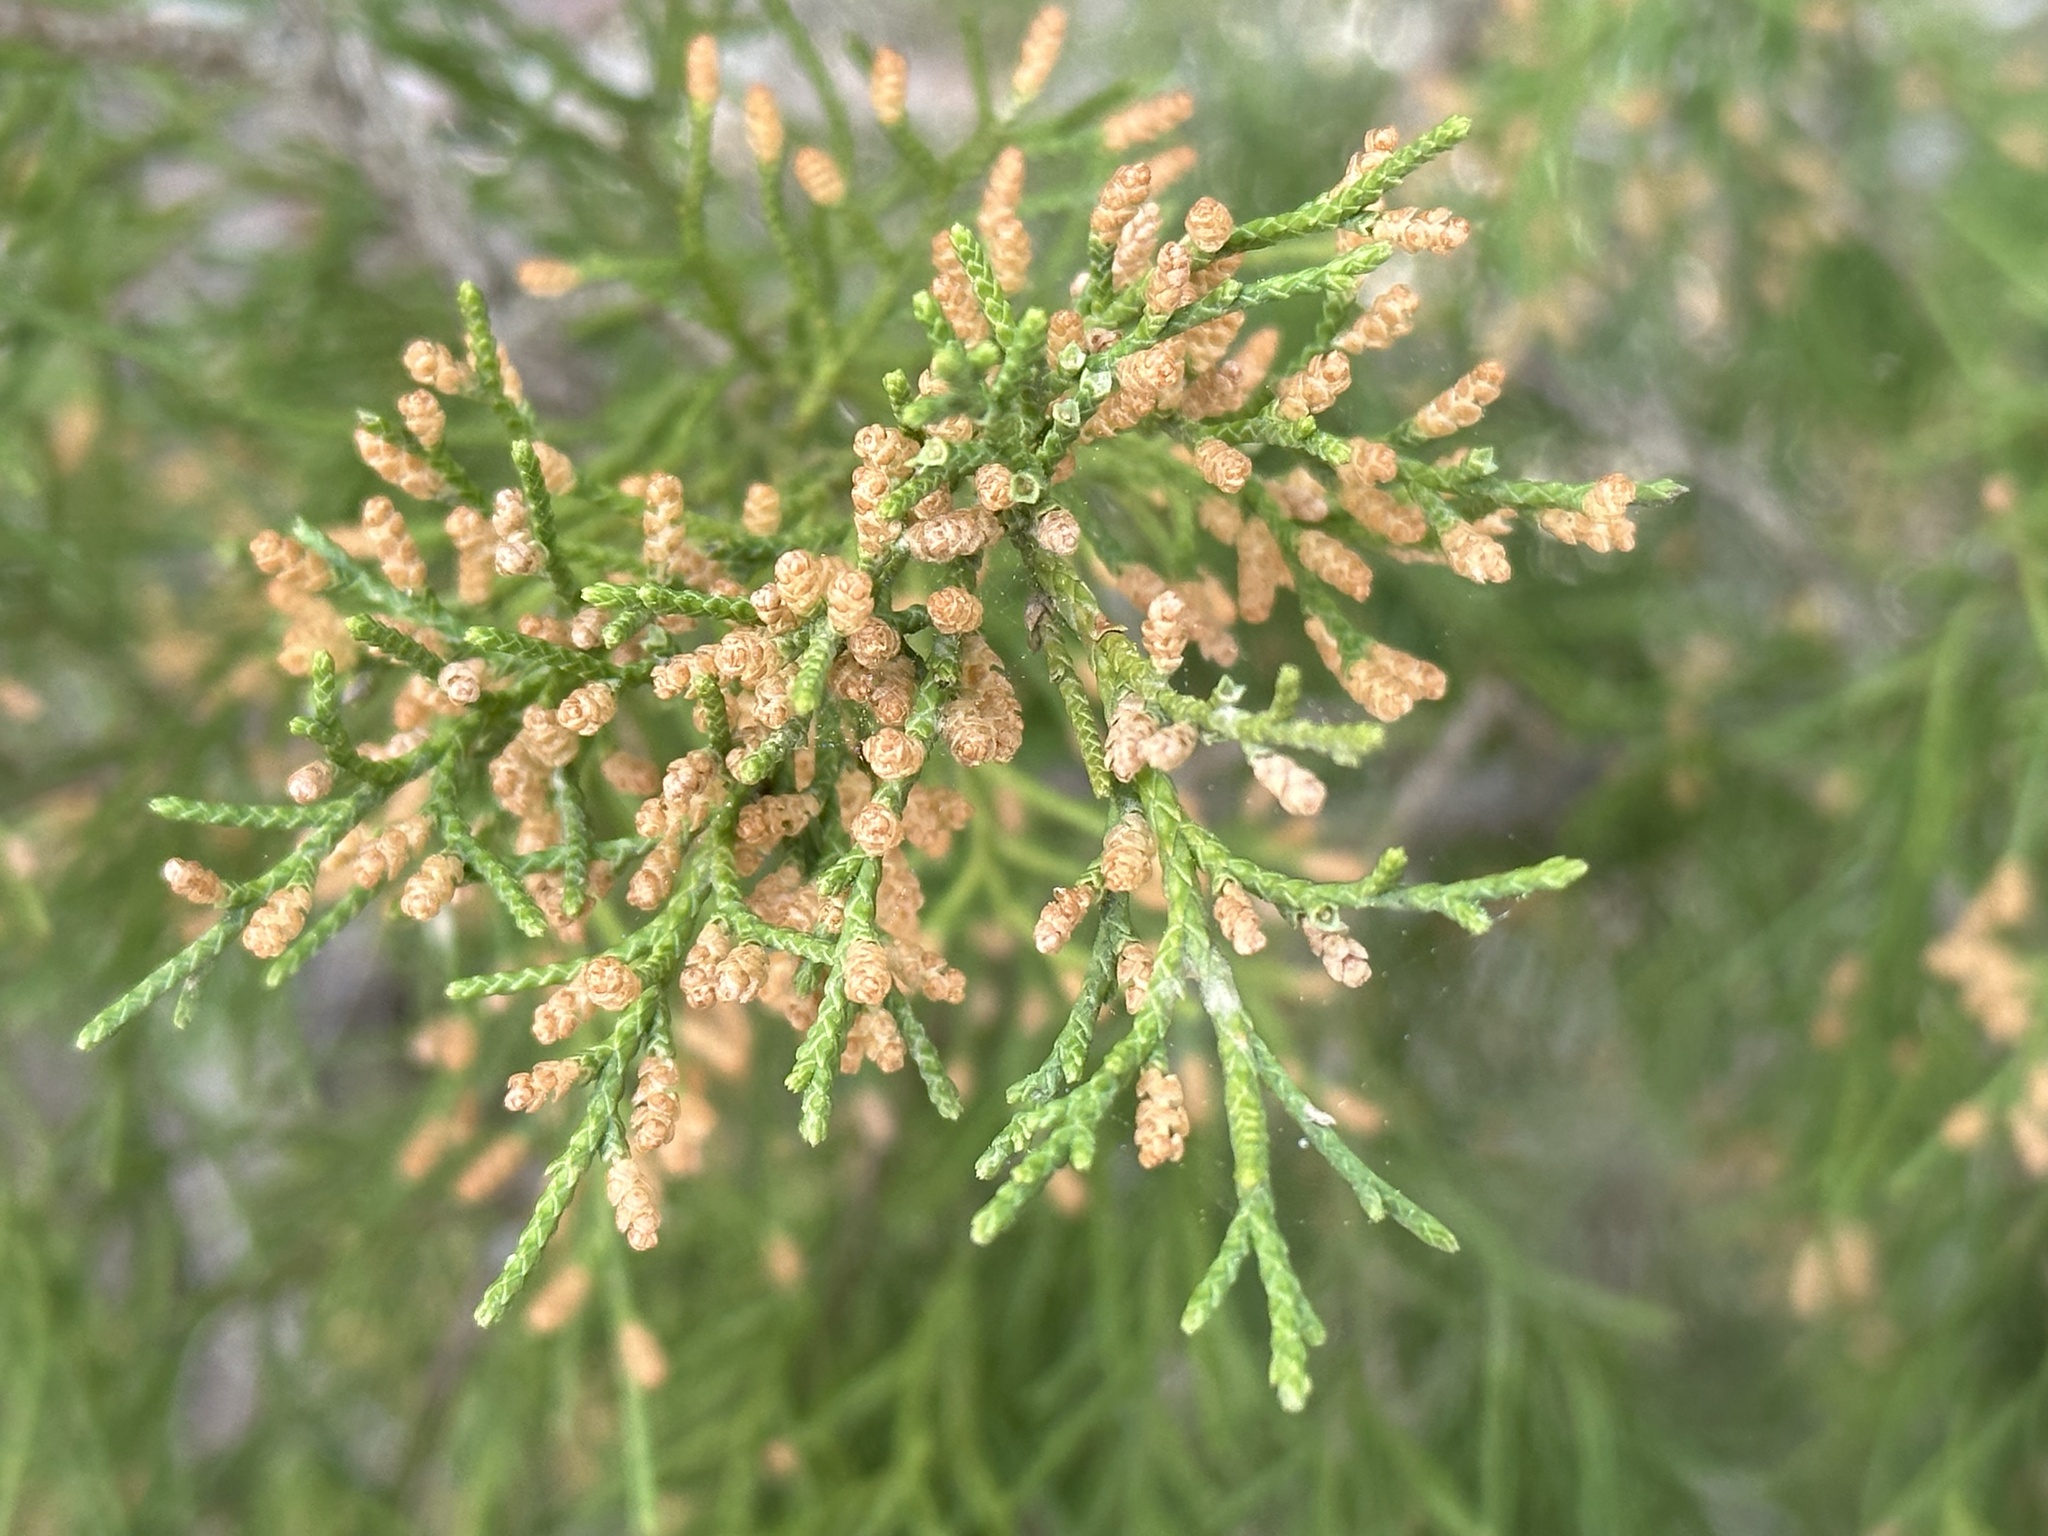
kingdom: Plantae
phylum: Tracheophyta
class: Pinopsida
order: Pinales
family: Cupressaceae
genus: Juniperus
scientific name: Juniperus virginiana
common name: Red juniper
